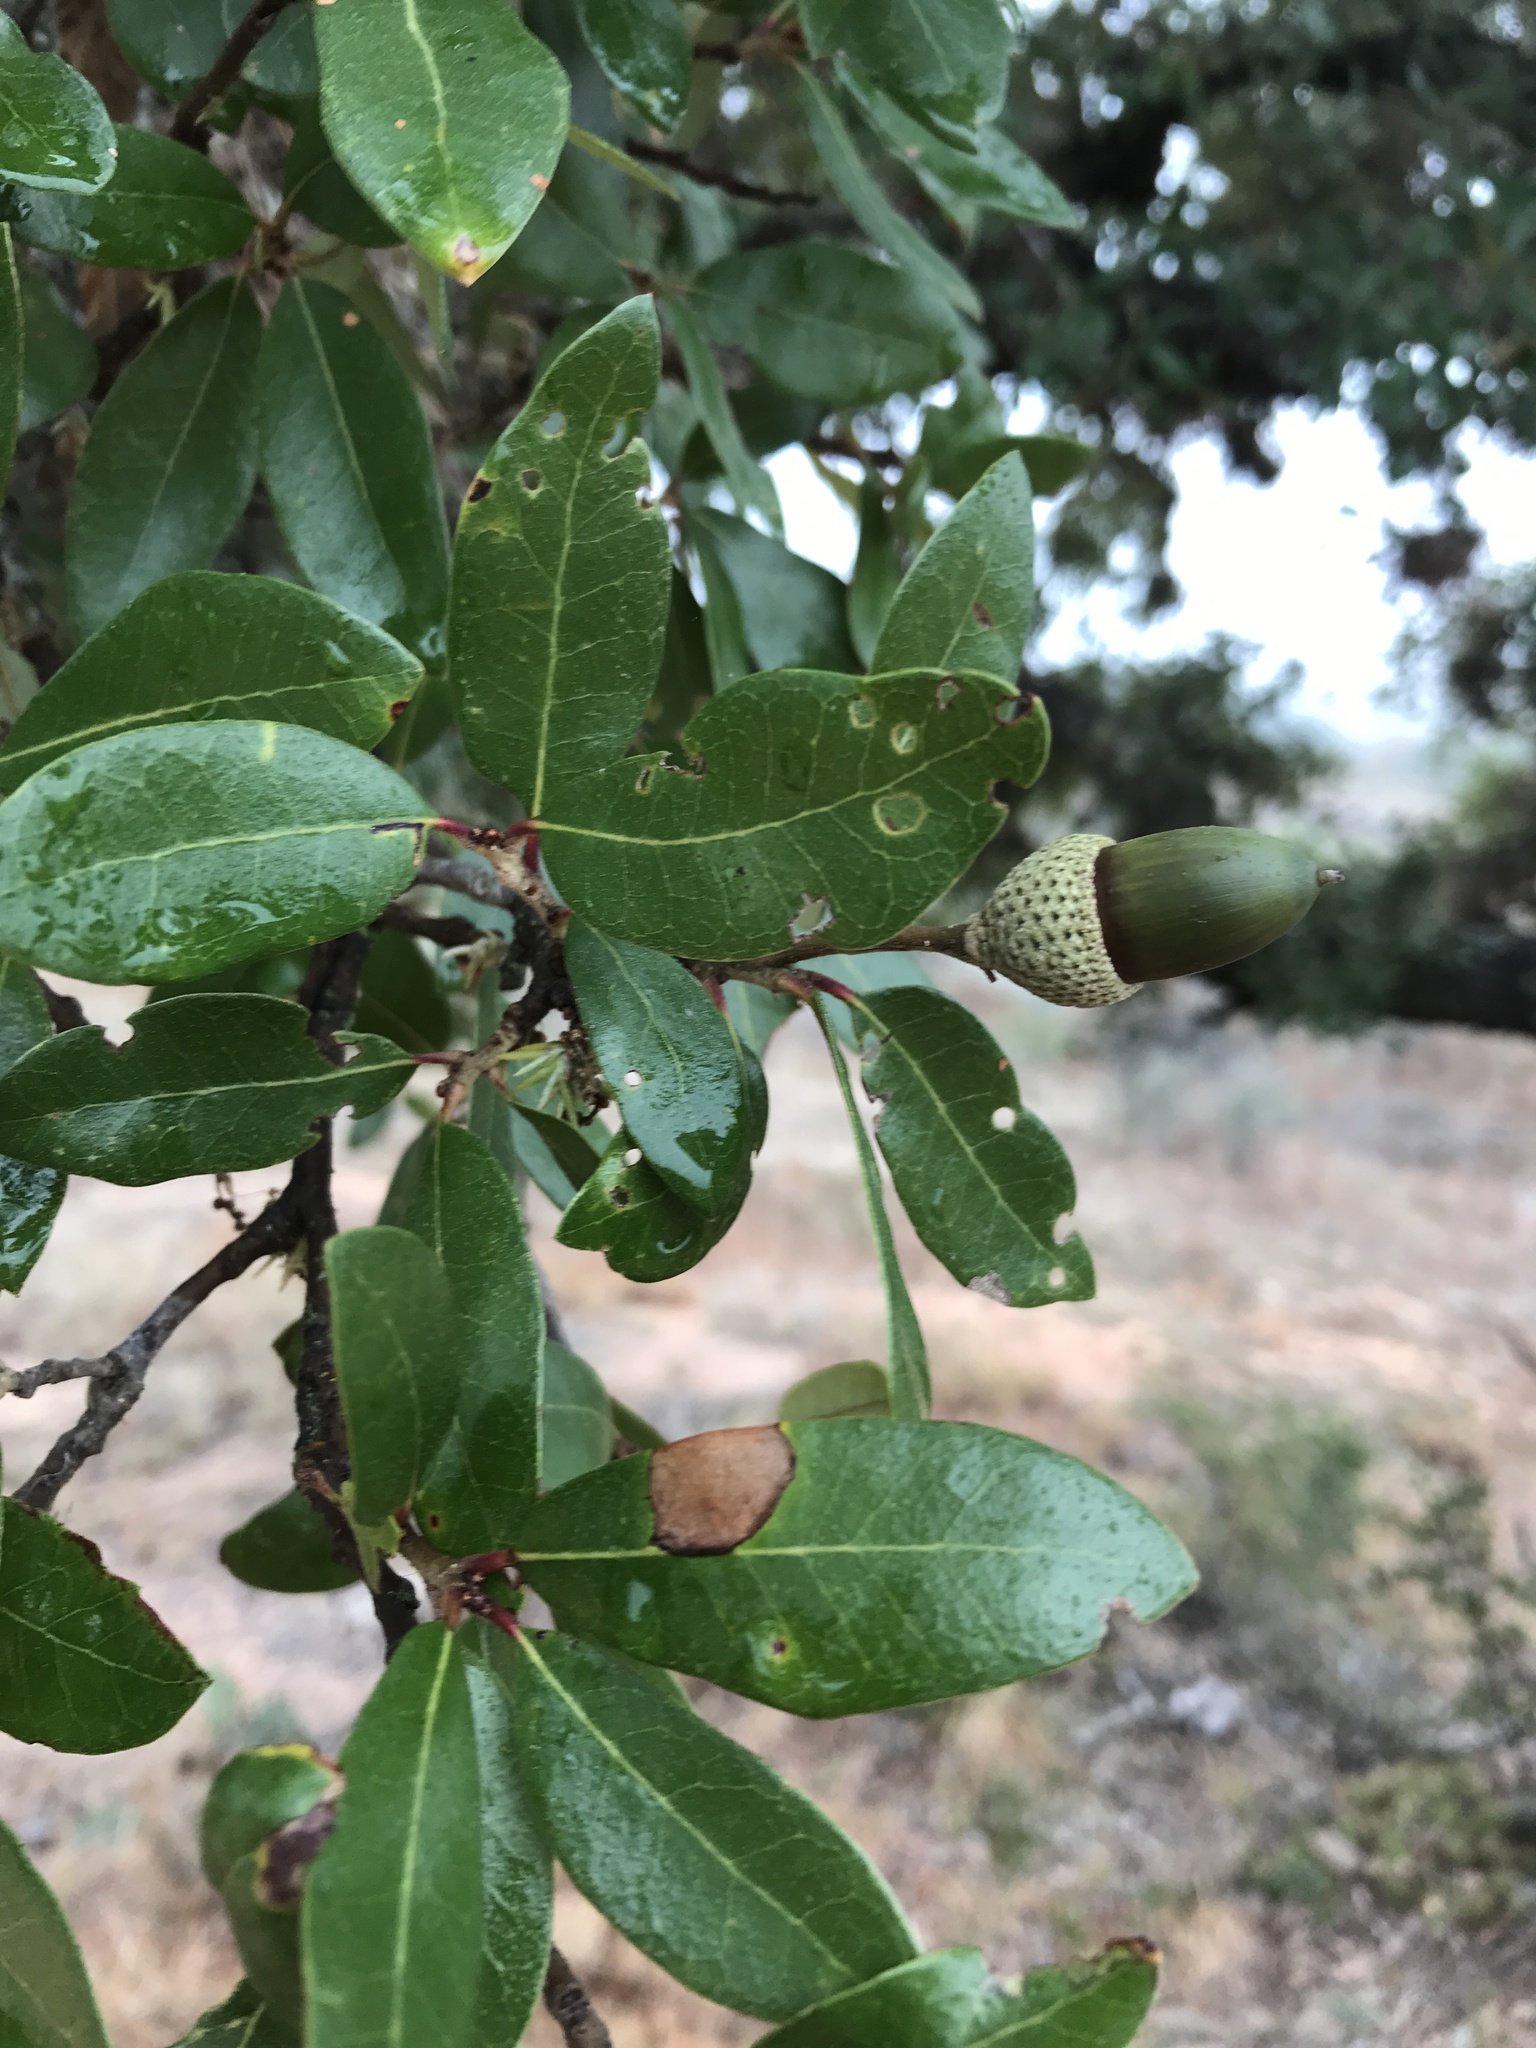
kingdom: Plantae
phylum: Tracheophyta
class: Magnoliopsida
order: Fagales
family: Fagaceae
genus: Quercus
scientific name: Quercus fusiformis
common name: Texas live oak
